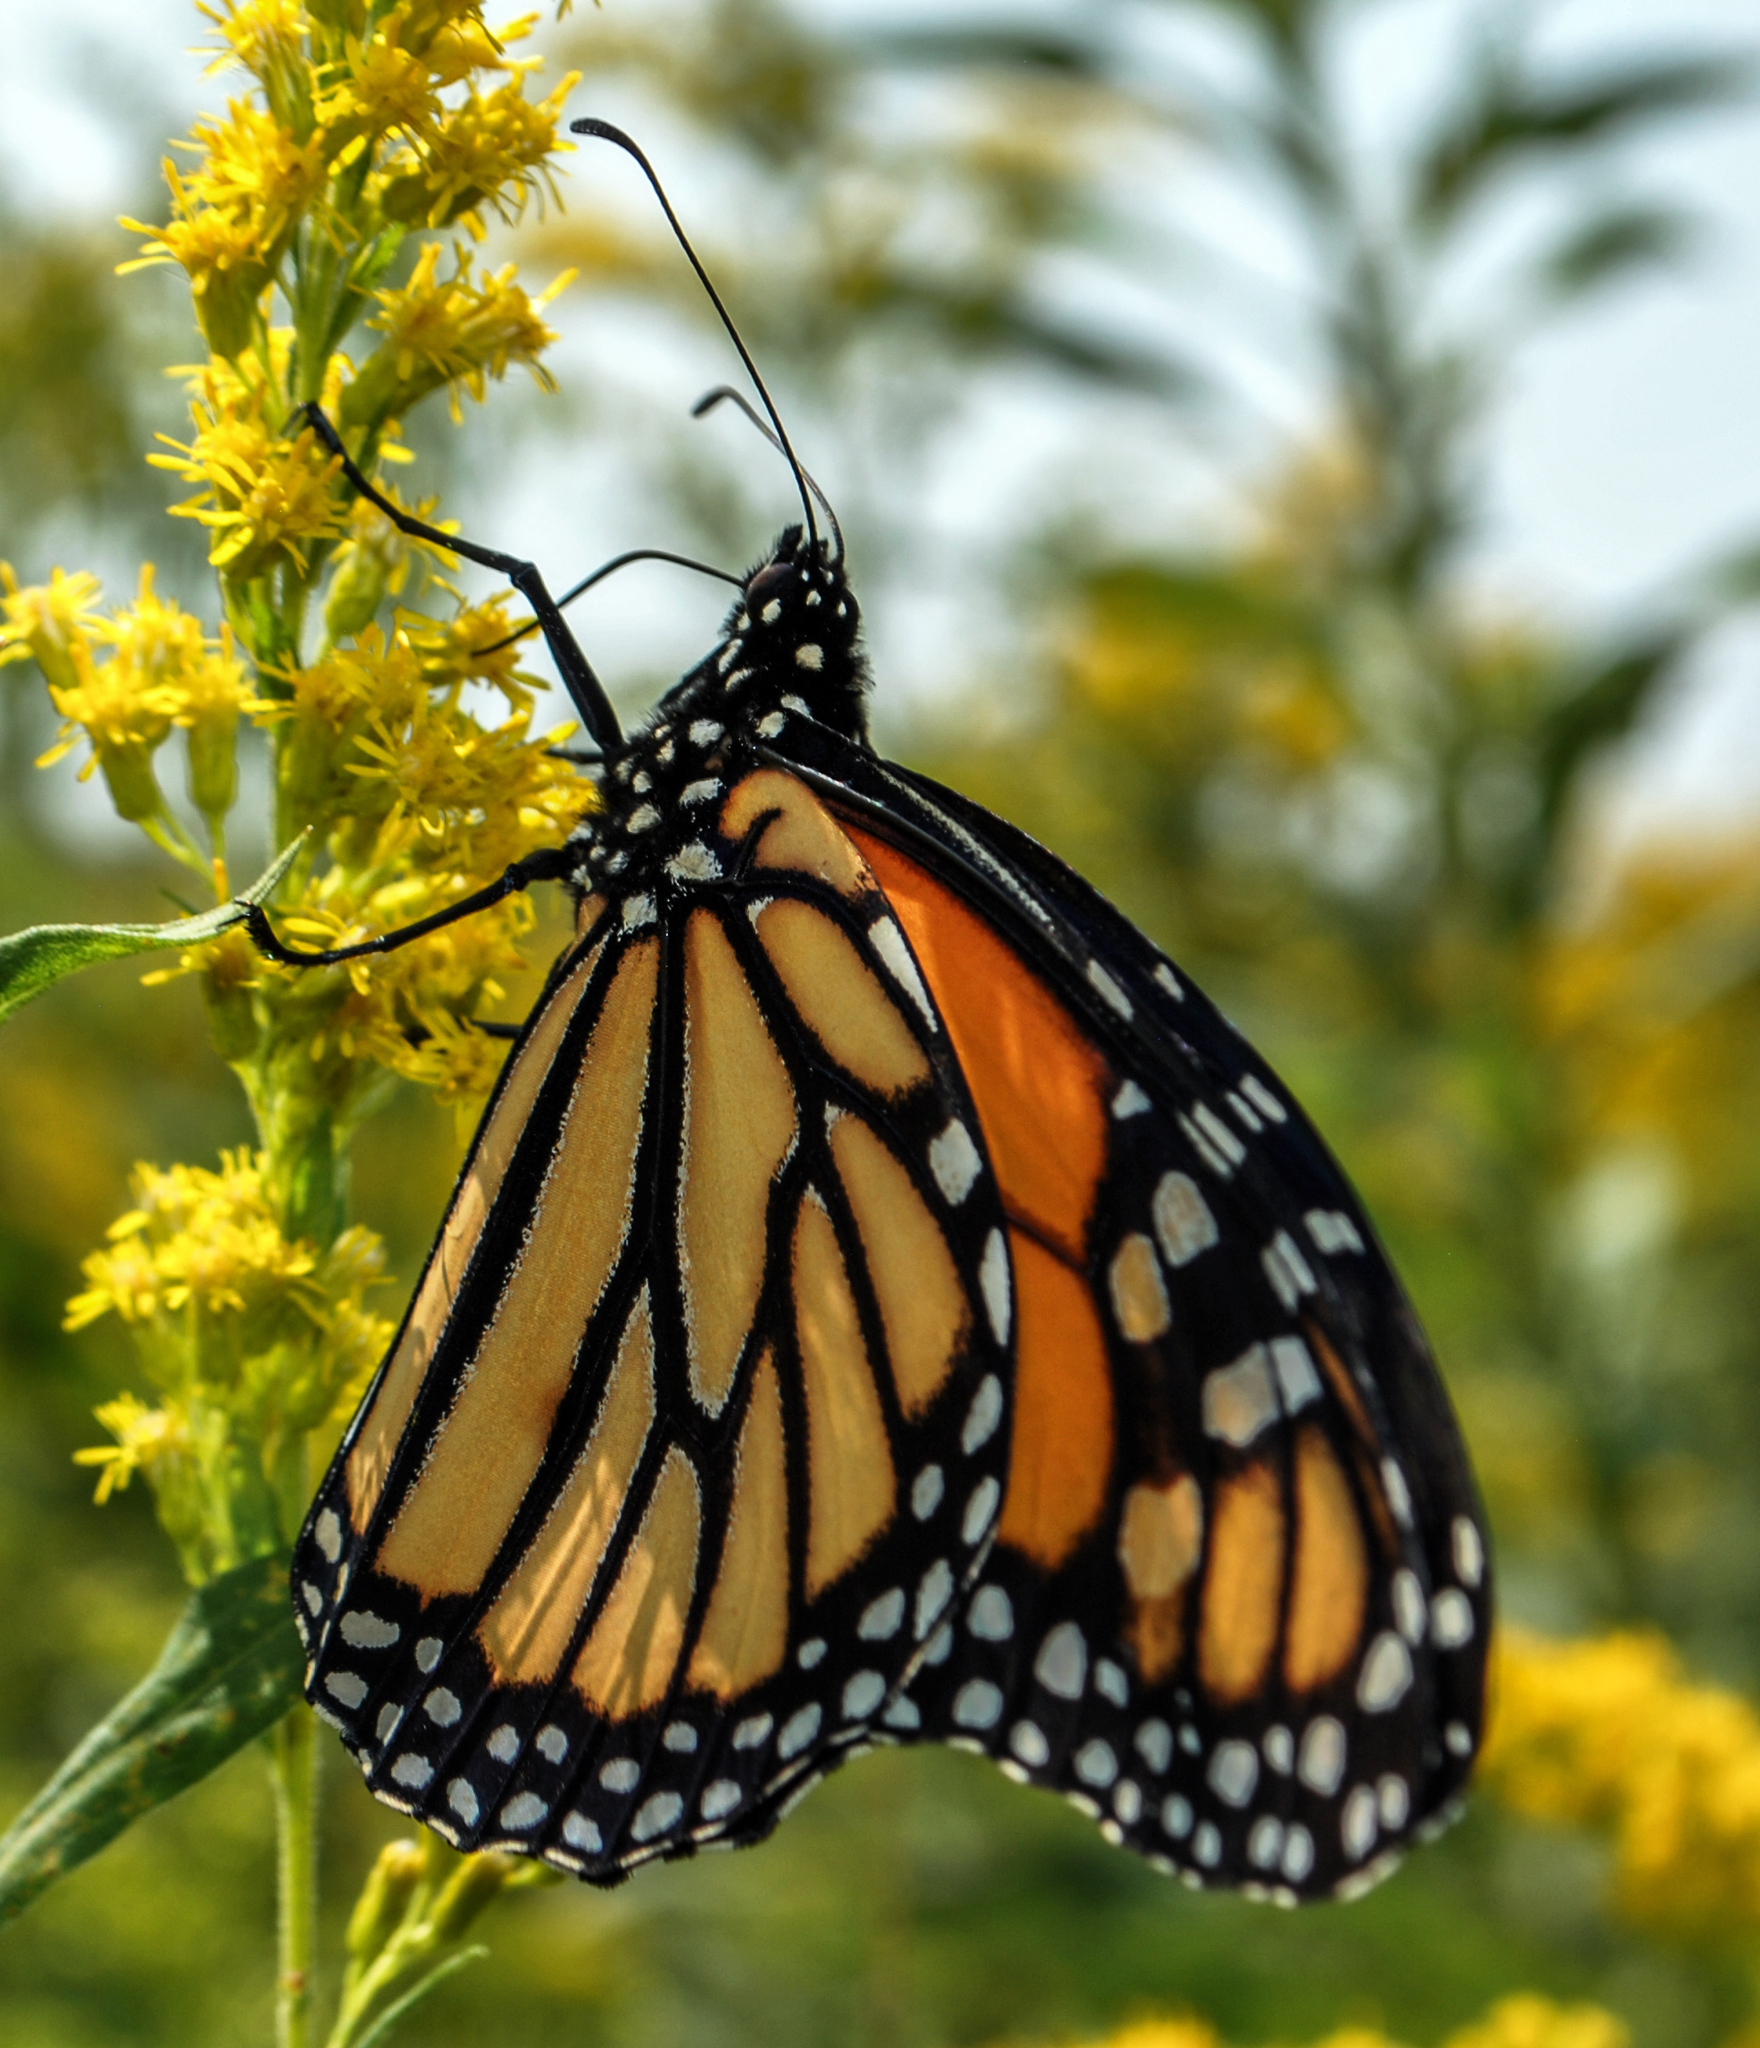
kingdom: Animalia
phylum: Arthropoda
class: Insecta
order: Lepidoptera
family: Nymphalidae
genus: Danaus
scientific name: Danaus plexippus
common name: Monarch
